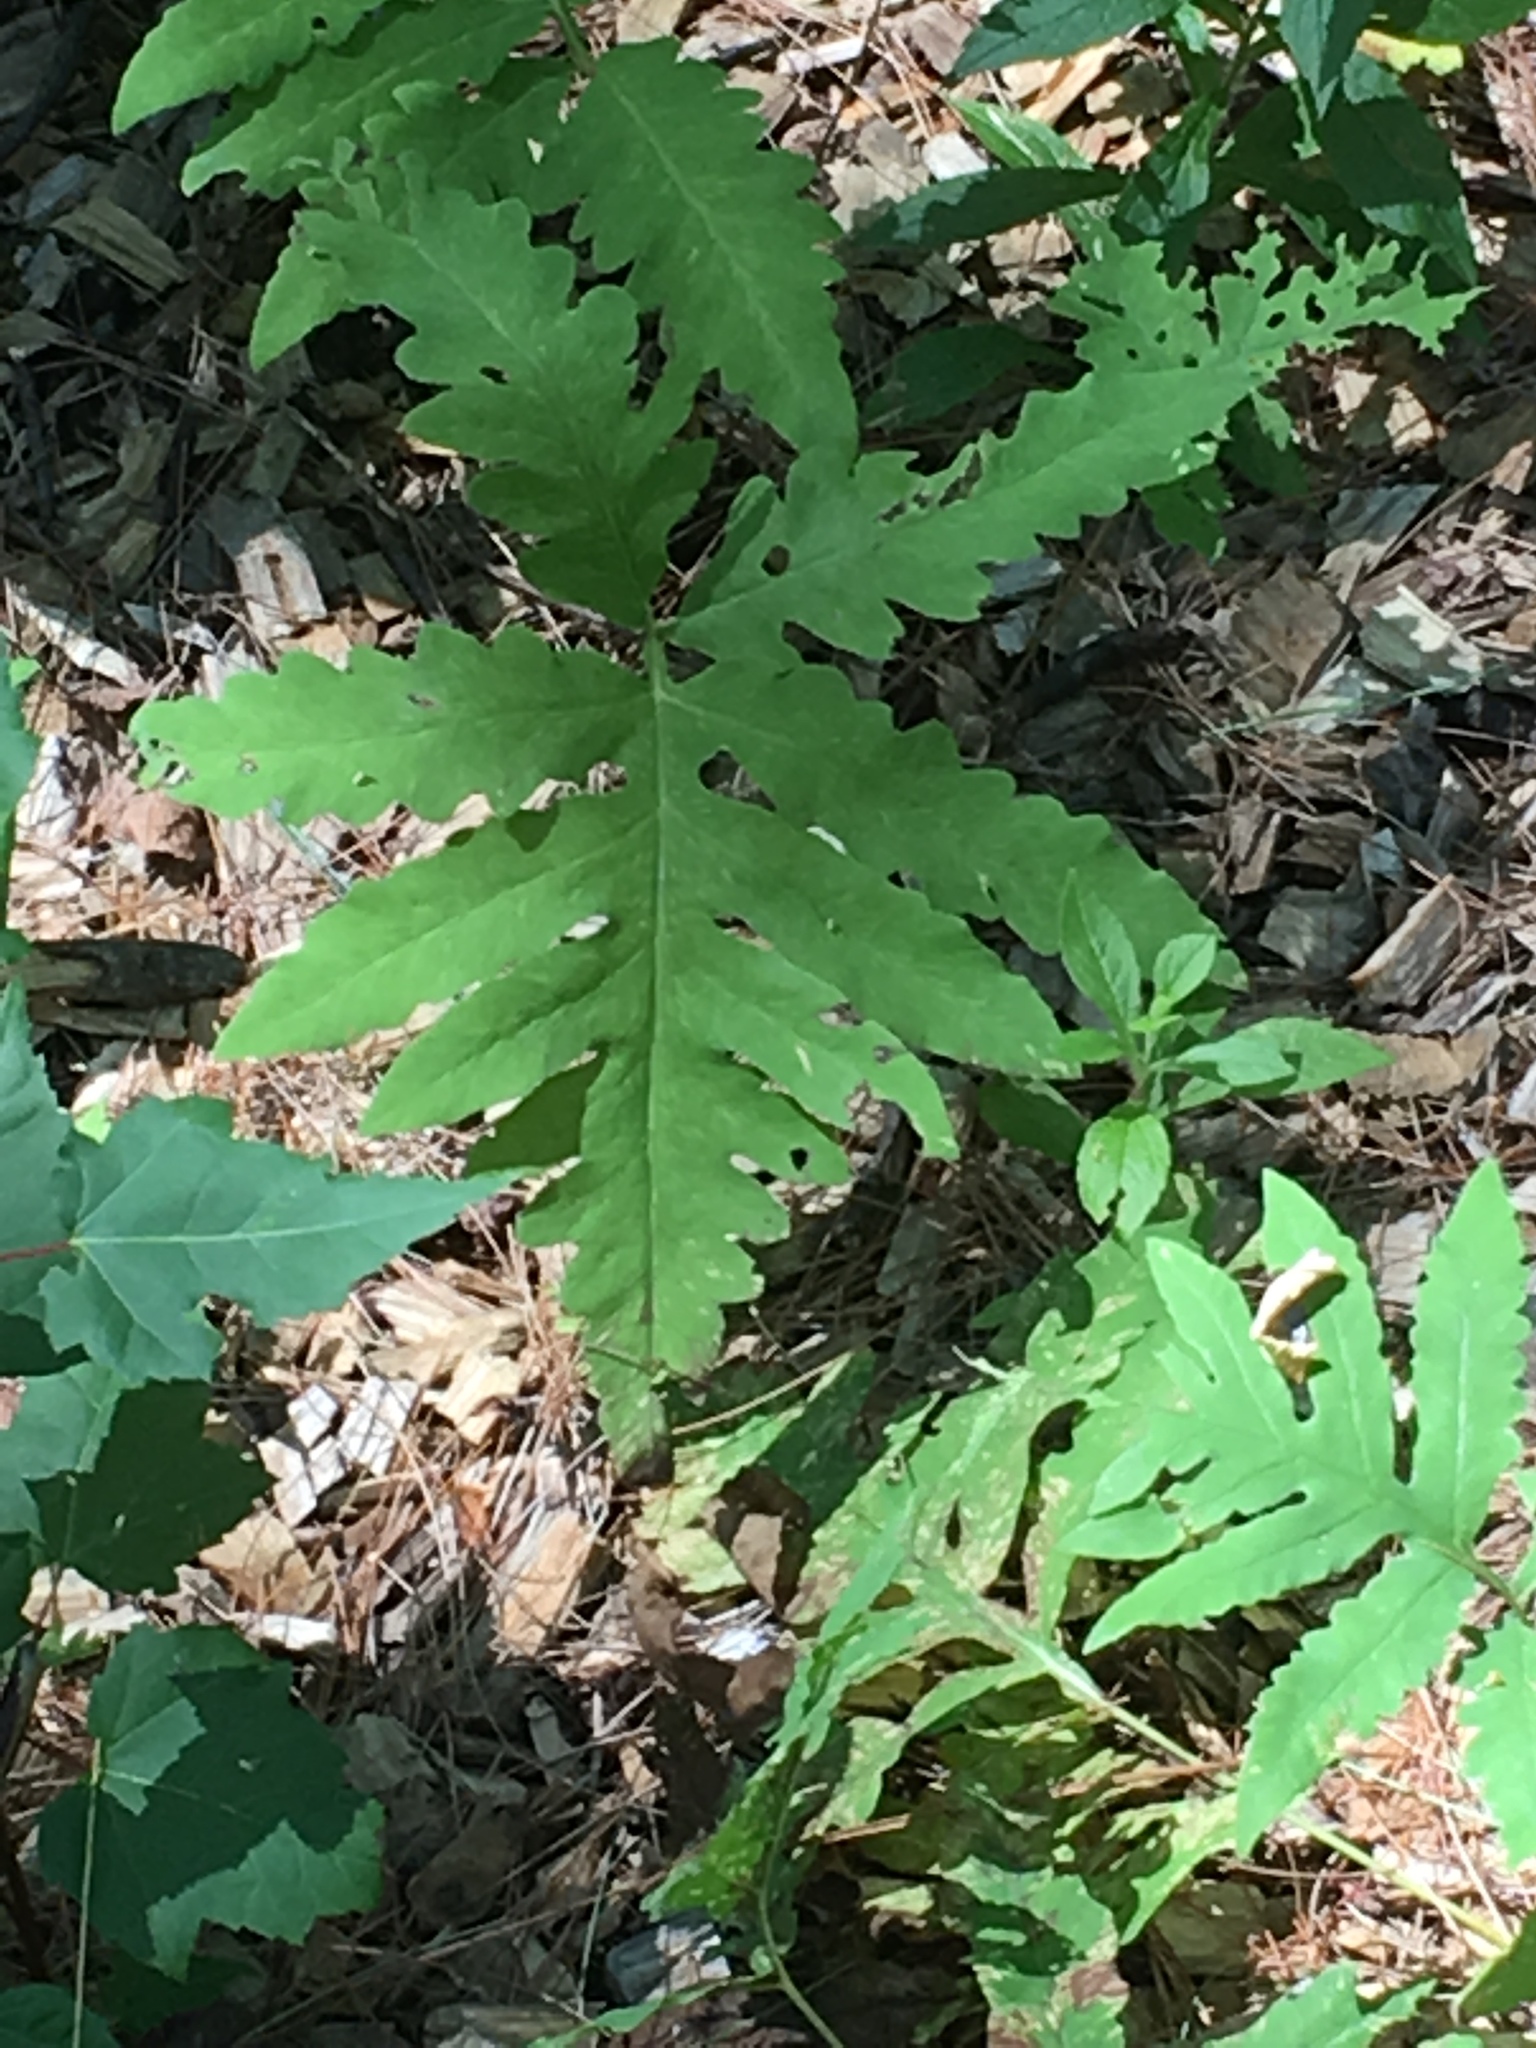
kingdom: Plantae
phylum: Tracheophyta
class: Polypodiopsida
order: Polypodiales
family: Onocleaceae
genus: Onoclea
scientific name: Onoclea sensibilis
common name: Sensitive fern
